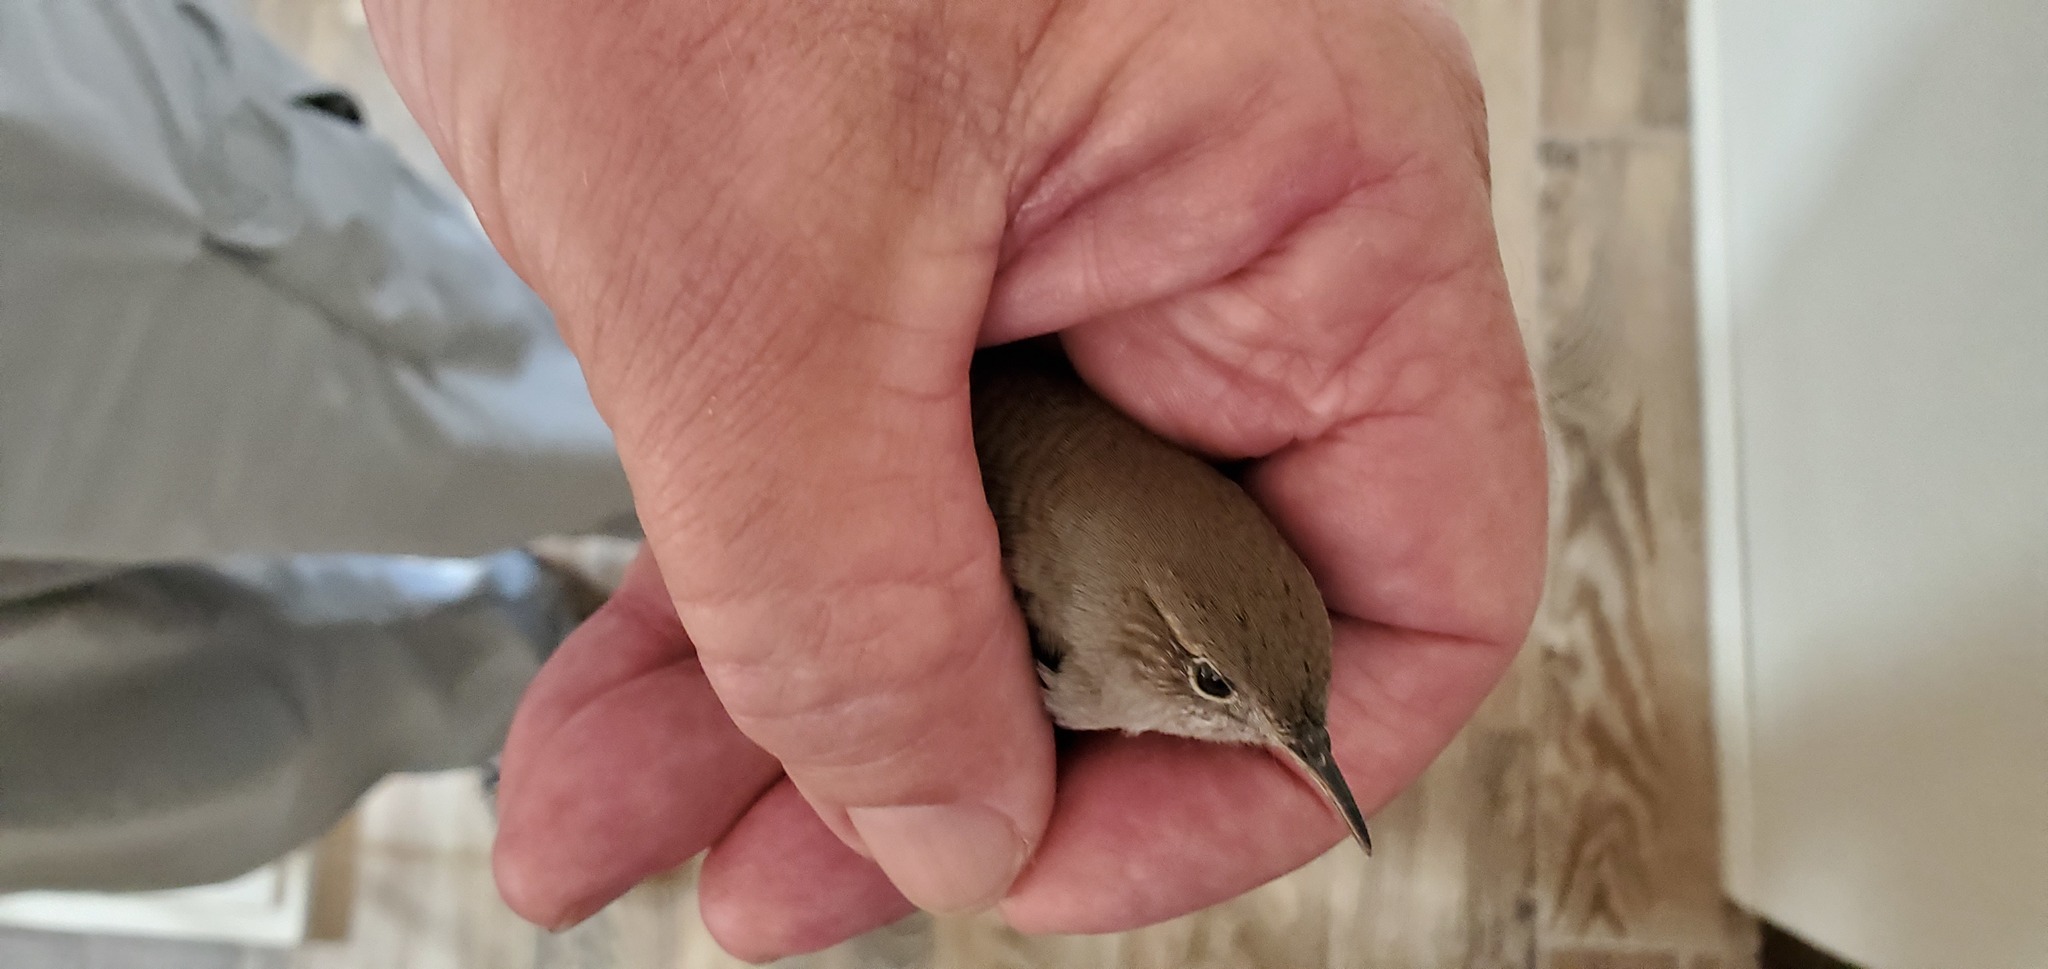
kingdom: Animalia
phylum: Chordata
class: Aves
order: Passeriformes
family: Troglodytidae
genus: Troglodytes
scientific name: Troglodytes aedon
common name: House wren
